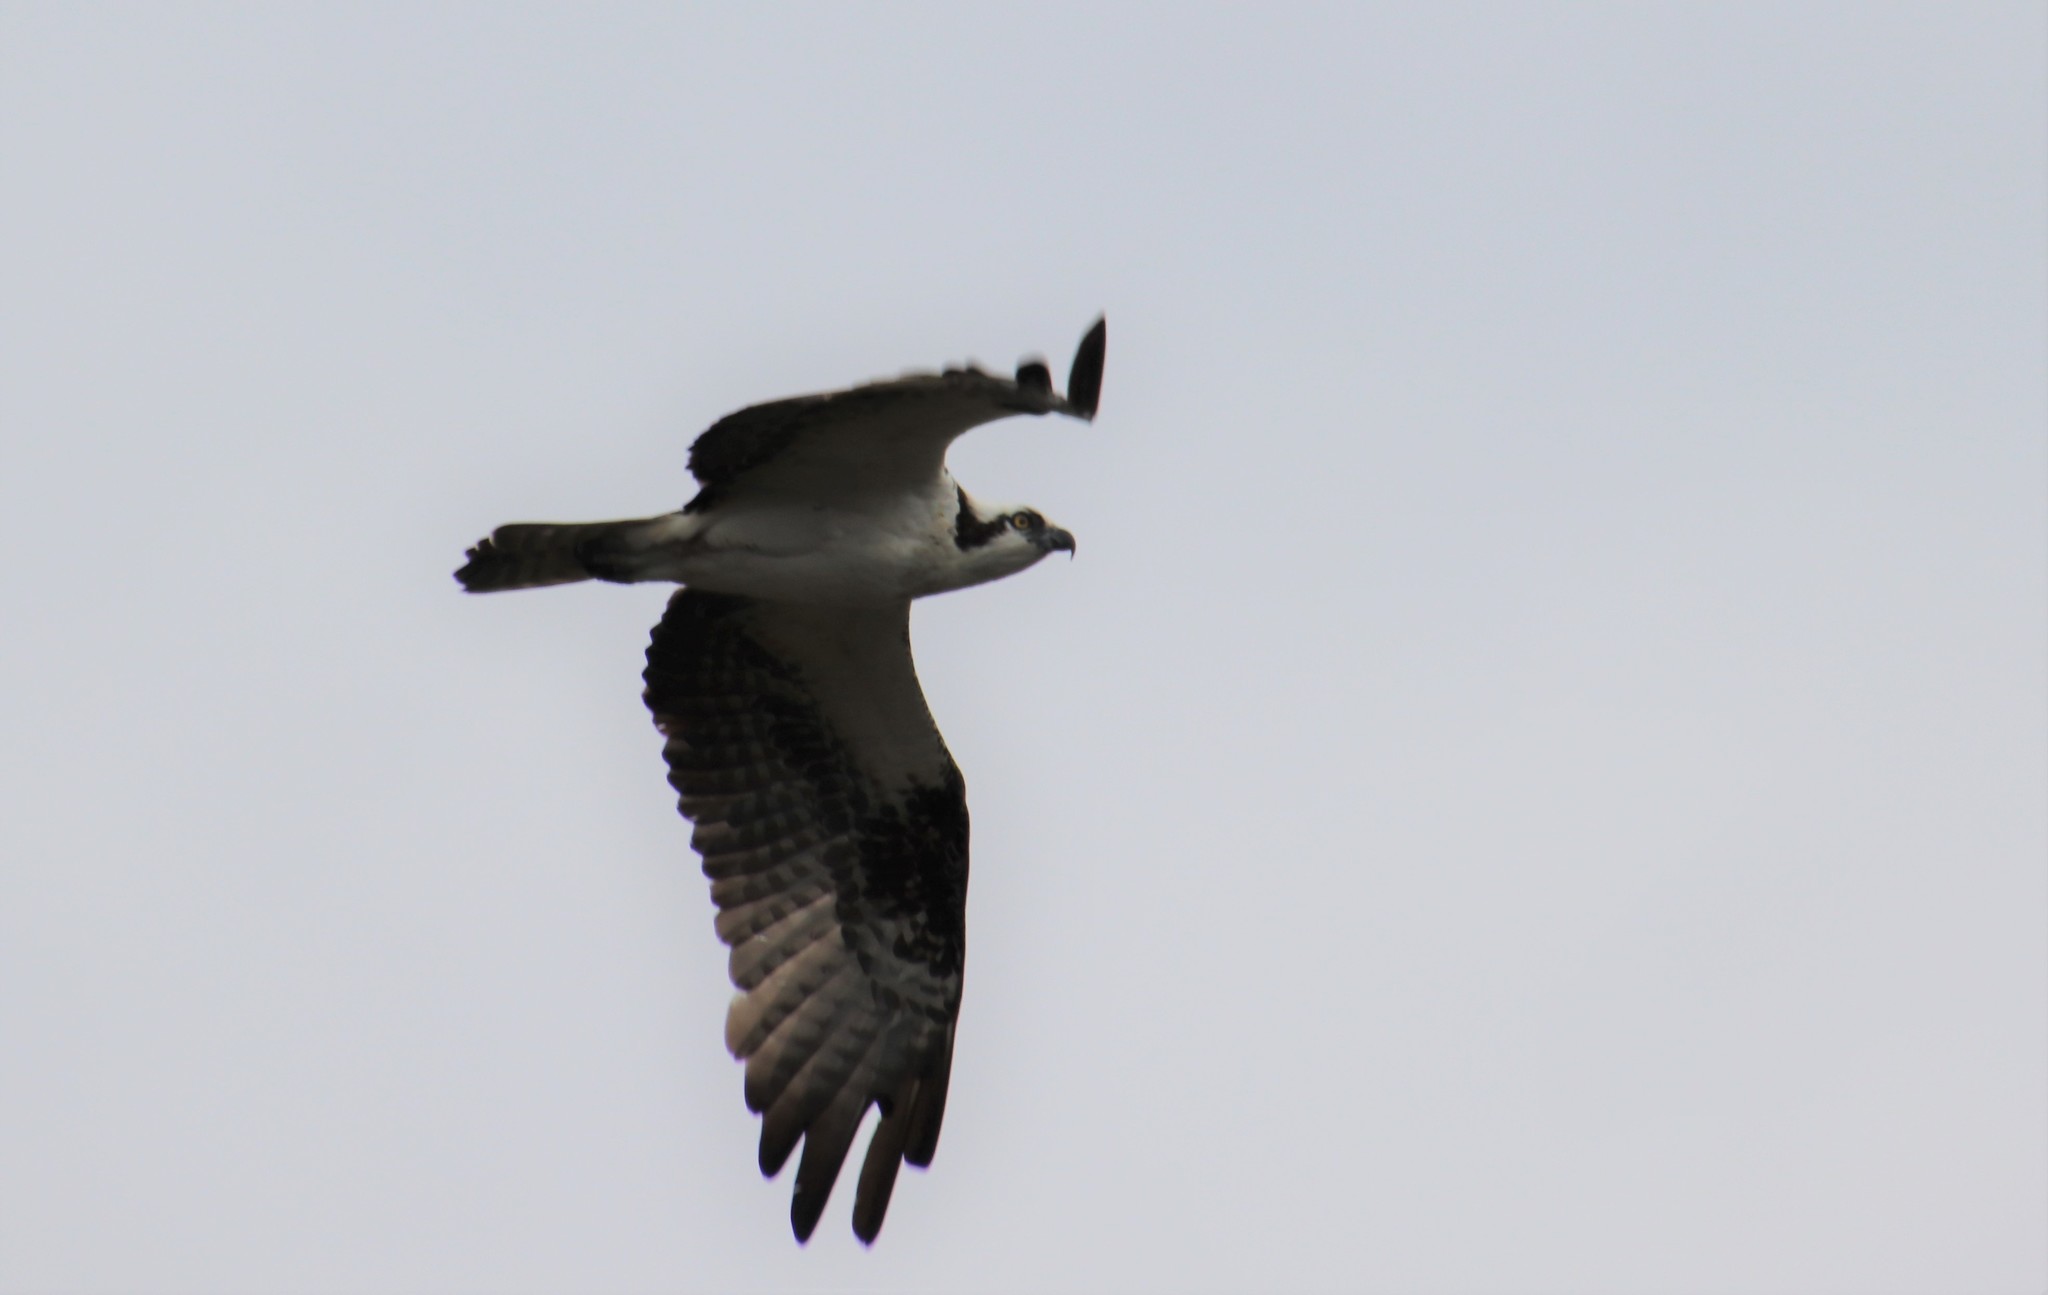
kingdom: Animalia
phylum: Chordata
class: Aves
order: Accipitriformes
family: Pandionidae
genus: Pandion
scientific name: Pandion haliaetus
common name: Osprey
